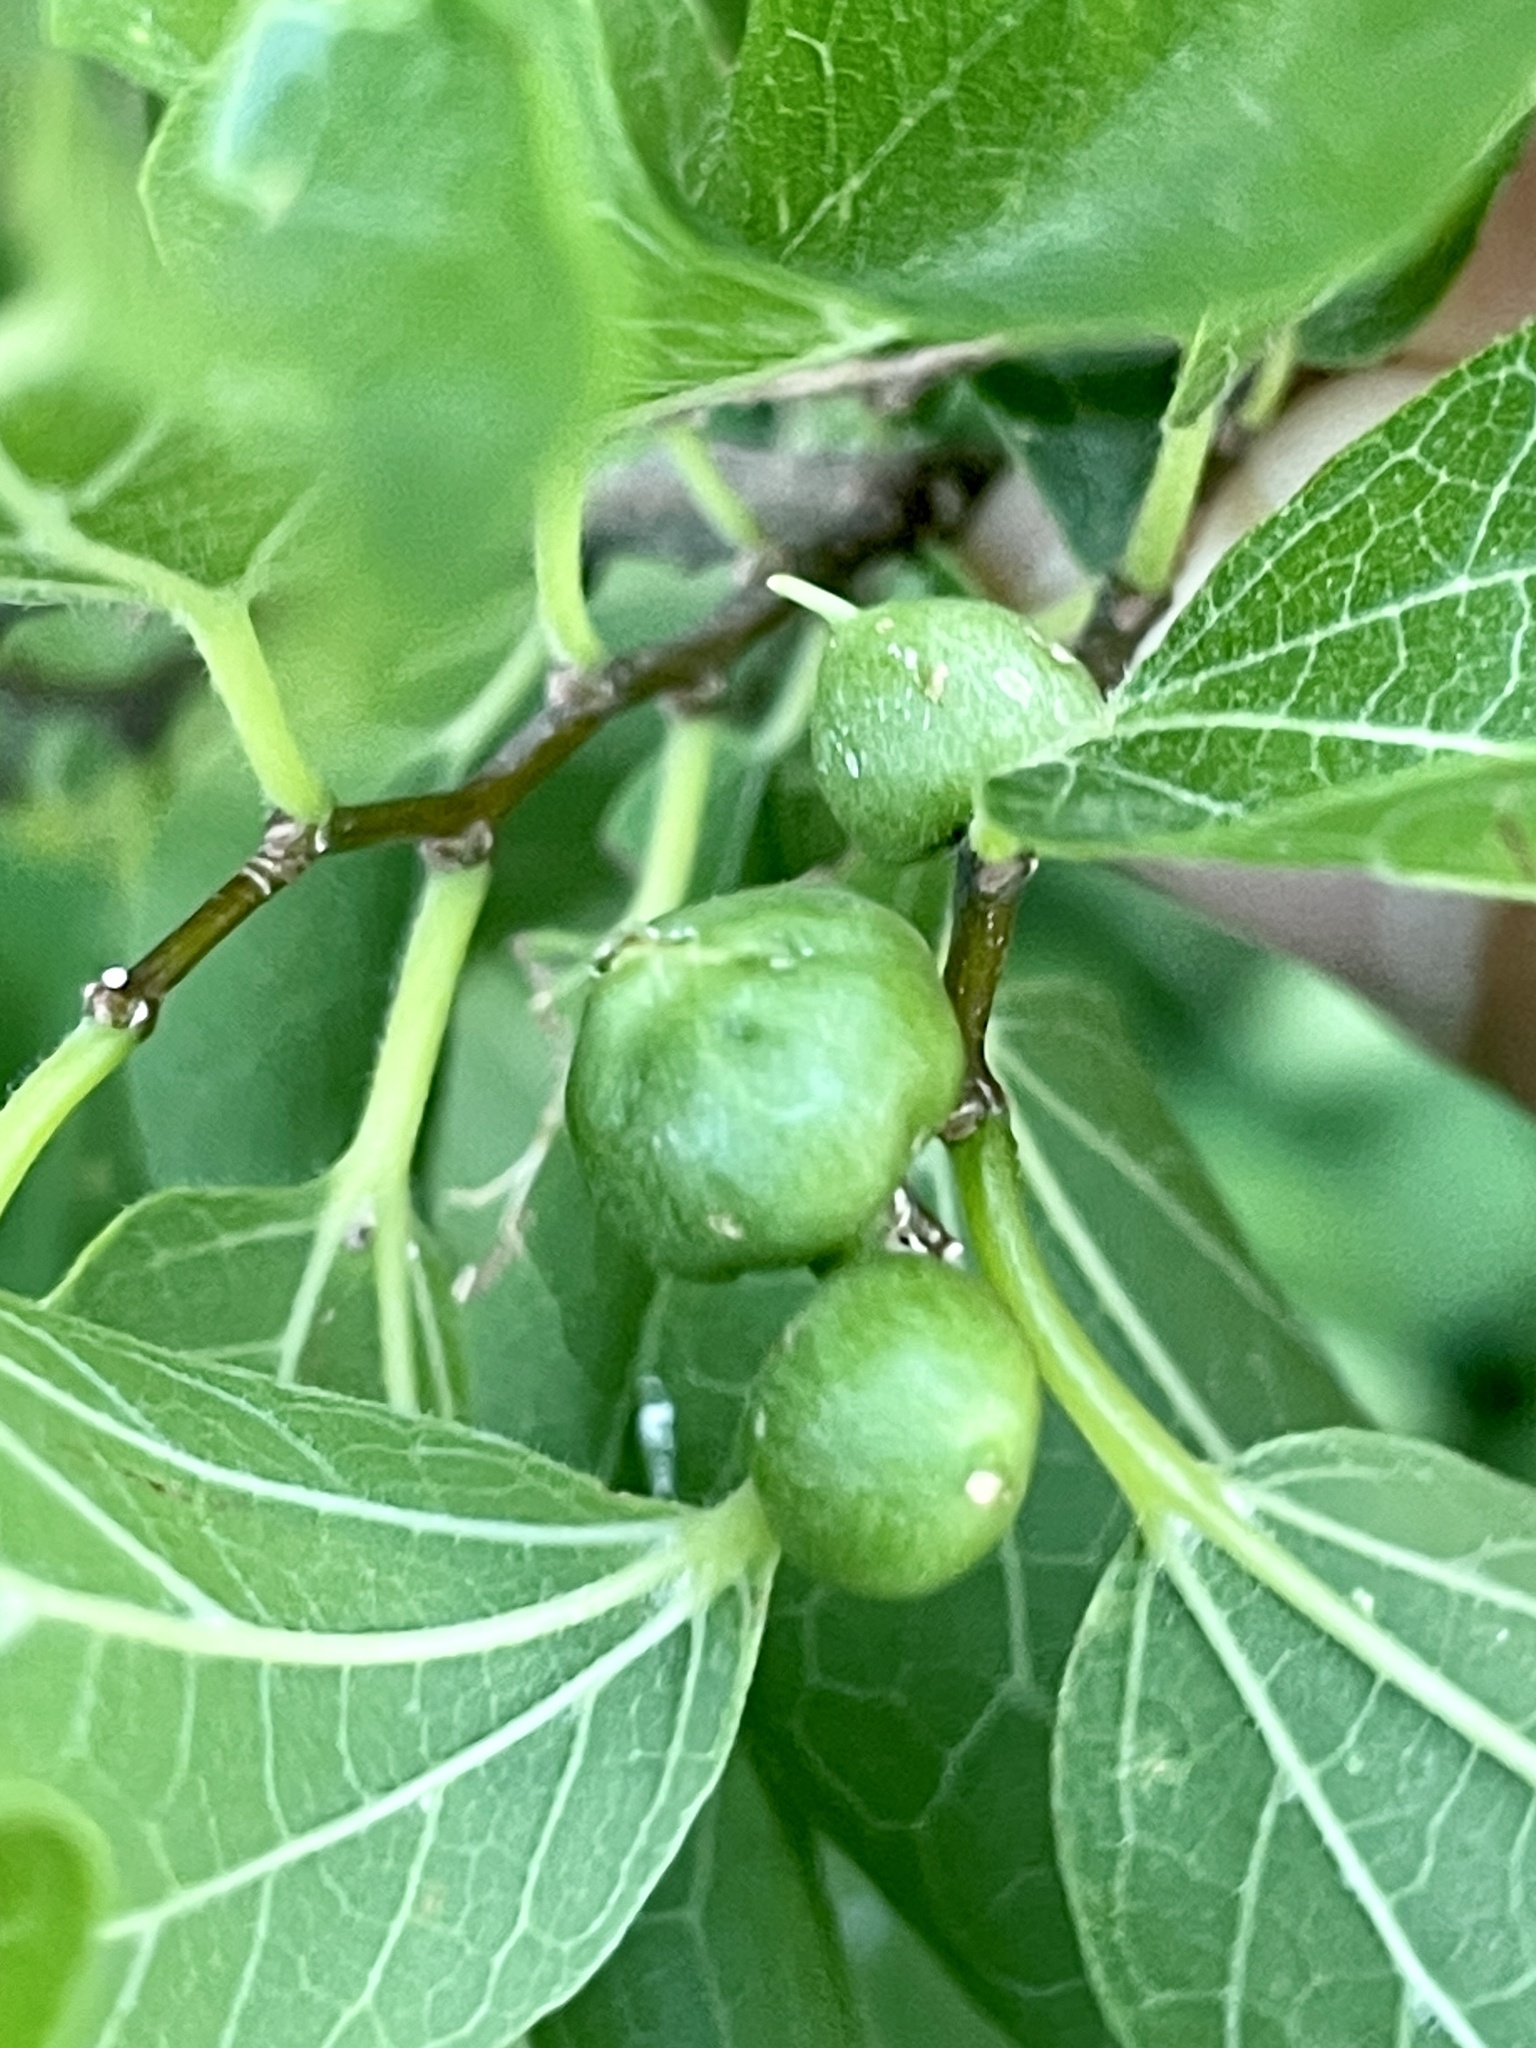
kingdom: Animalia
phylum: Arthropoda
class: Insecta
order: Diptera
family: Cecidomyiidae
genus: Celticecis
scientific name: Celticecis connata
